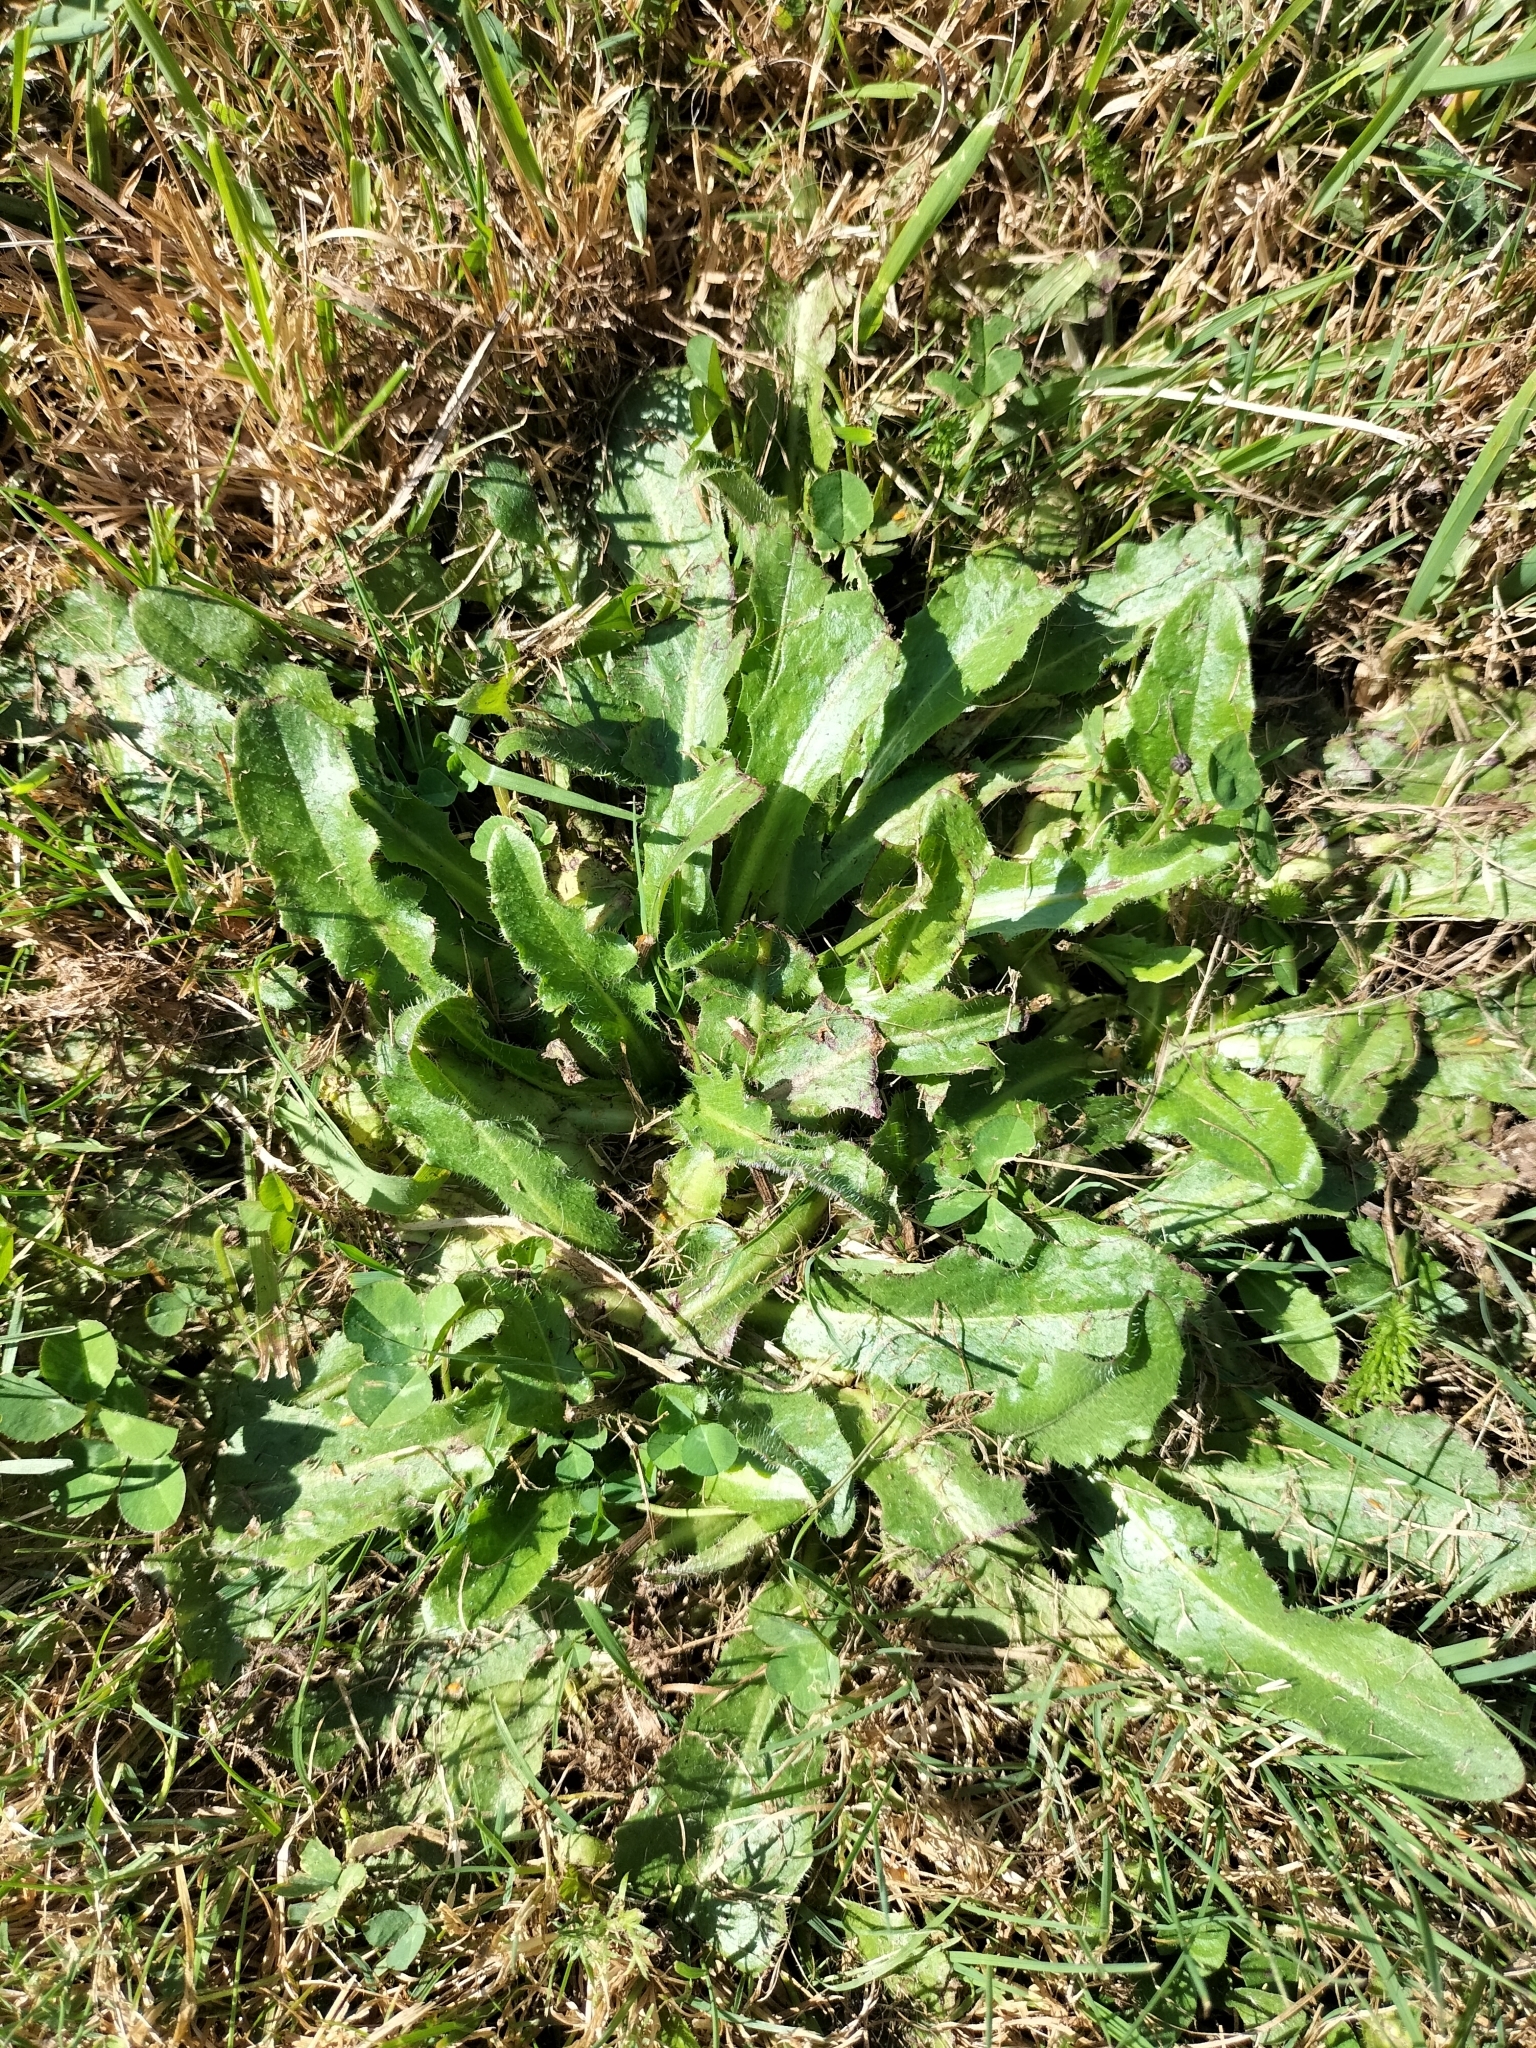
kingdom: Plantae
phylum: Tracheophyta
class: Magnoliopsida
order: Asterales
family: Asteraceae
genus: Hypochaeris
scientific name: Hypochaeris radicata
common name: Flatweed
